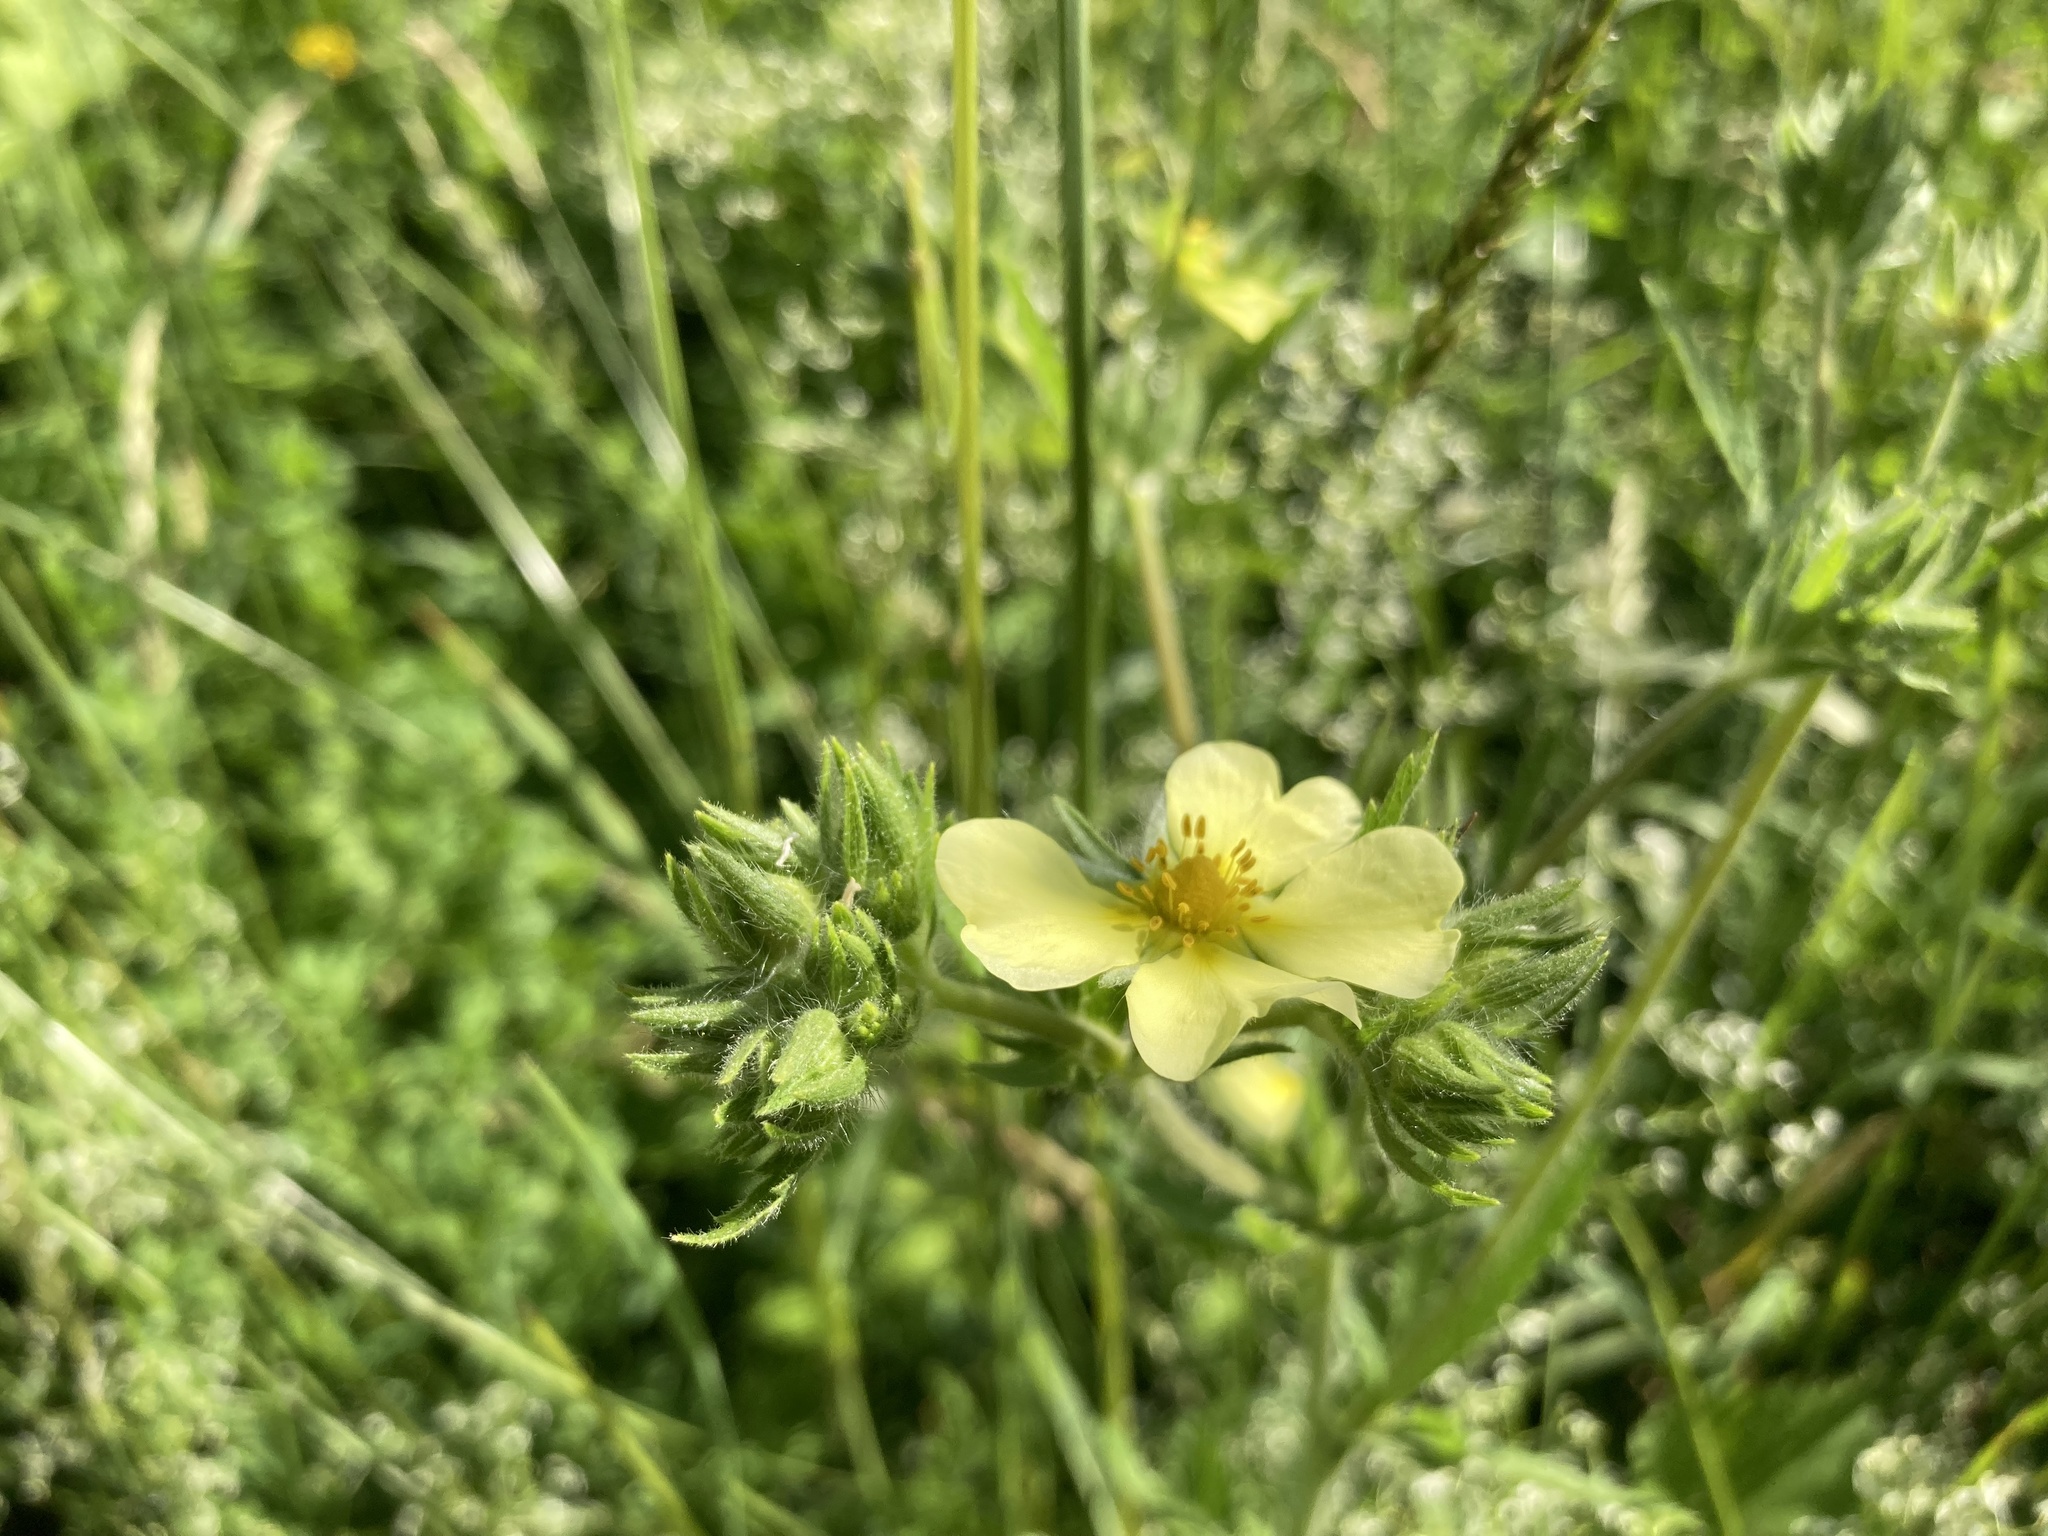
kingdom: Plantae
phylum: Tracheophyta
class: Magnoliopsida
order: Rosales
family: Rosaceae
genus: Potentilla
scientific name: Potentilla recta
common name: Sulphur cinquefoil
